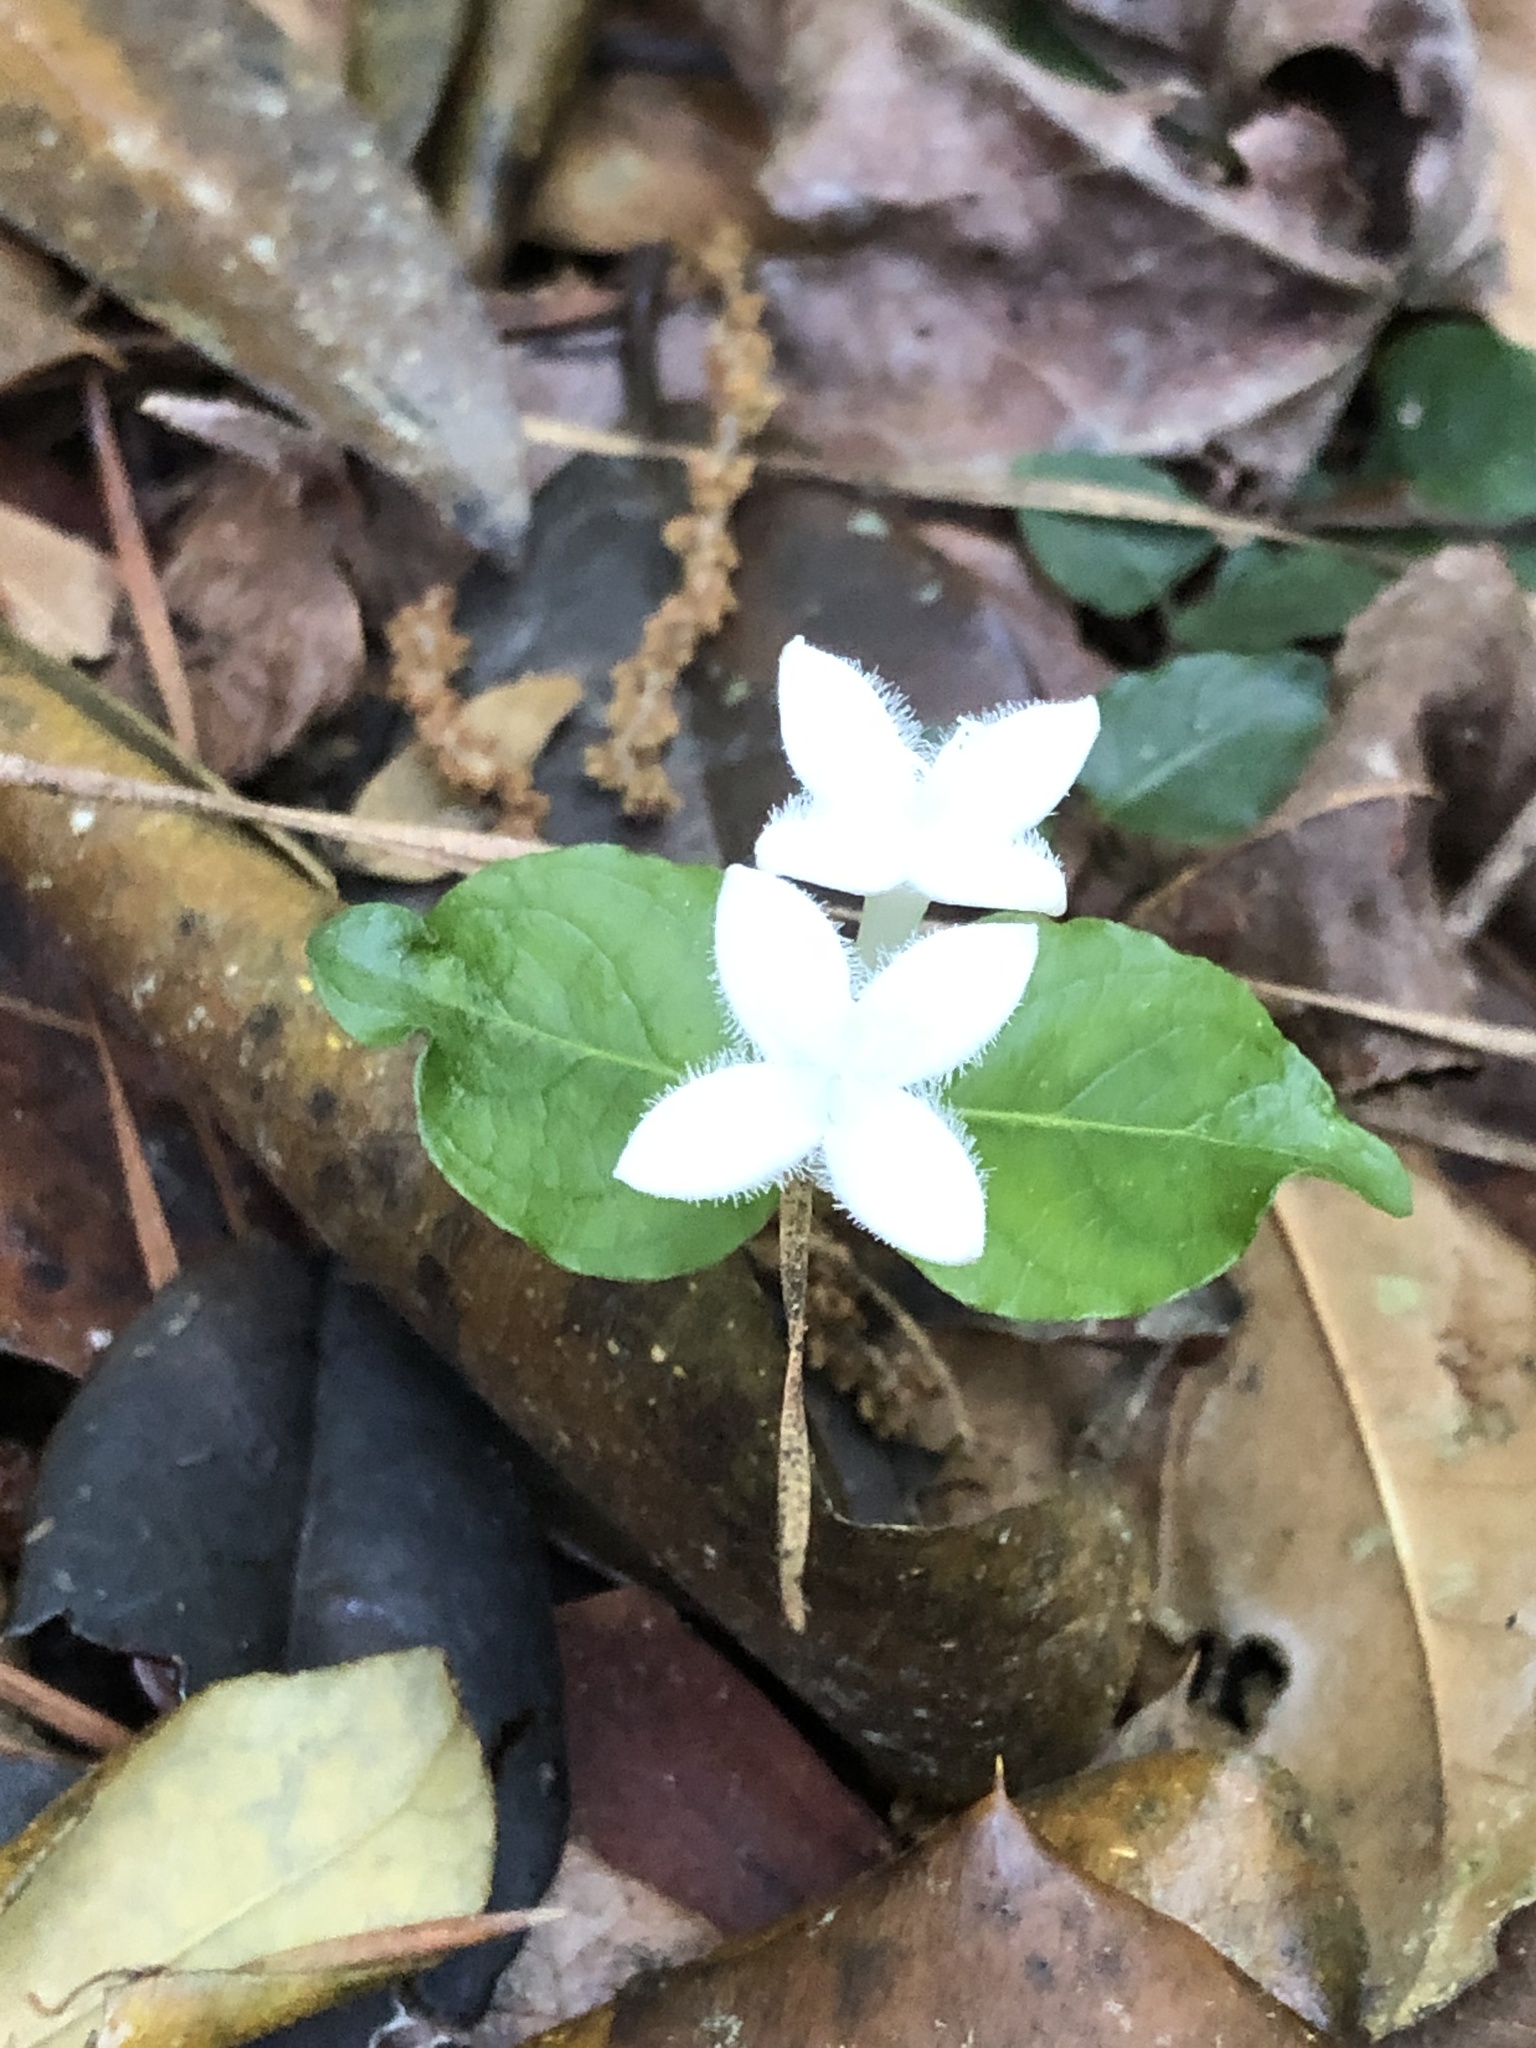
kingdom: Plantae
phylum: Tracheophyta
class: Magnoliopsida
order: Gentianales
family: Rubiaceae
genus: Mitchella
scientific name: Mitchella repens
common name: Partridge-berry
